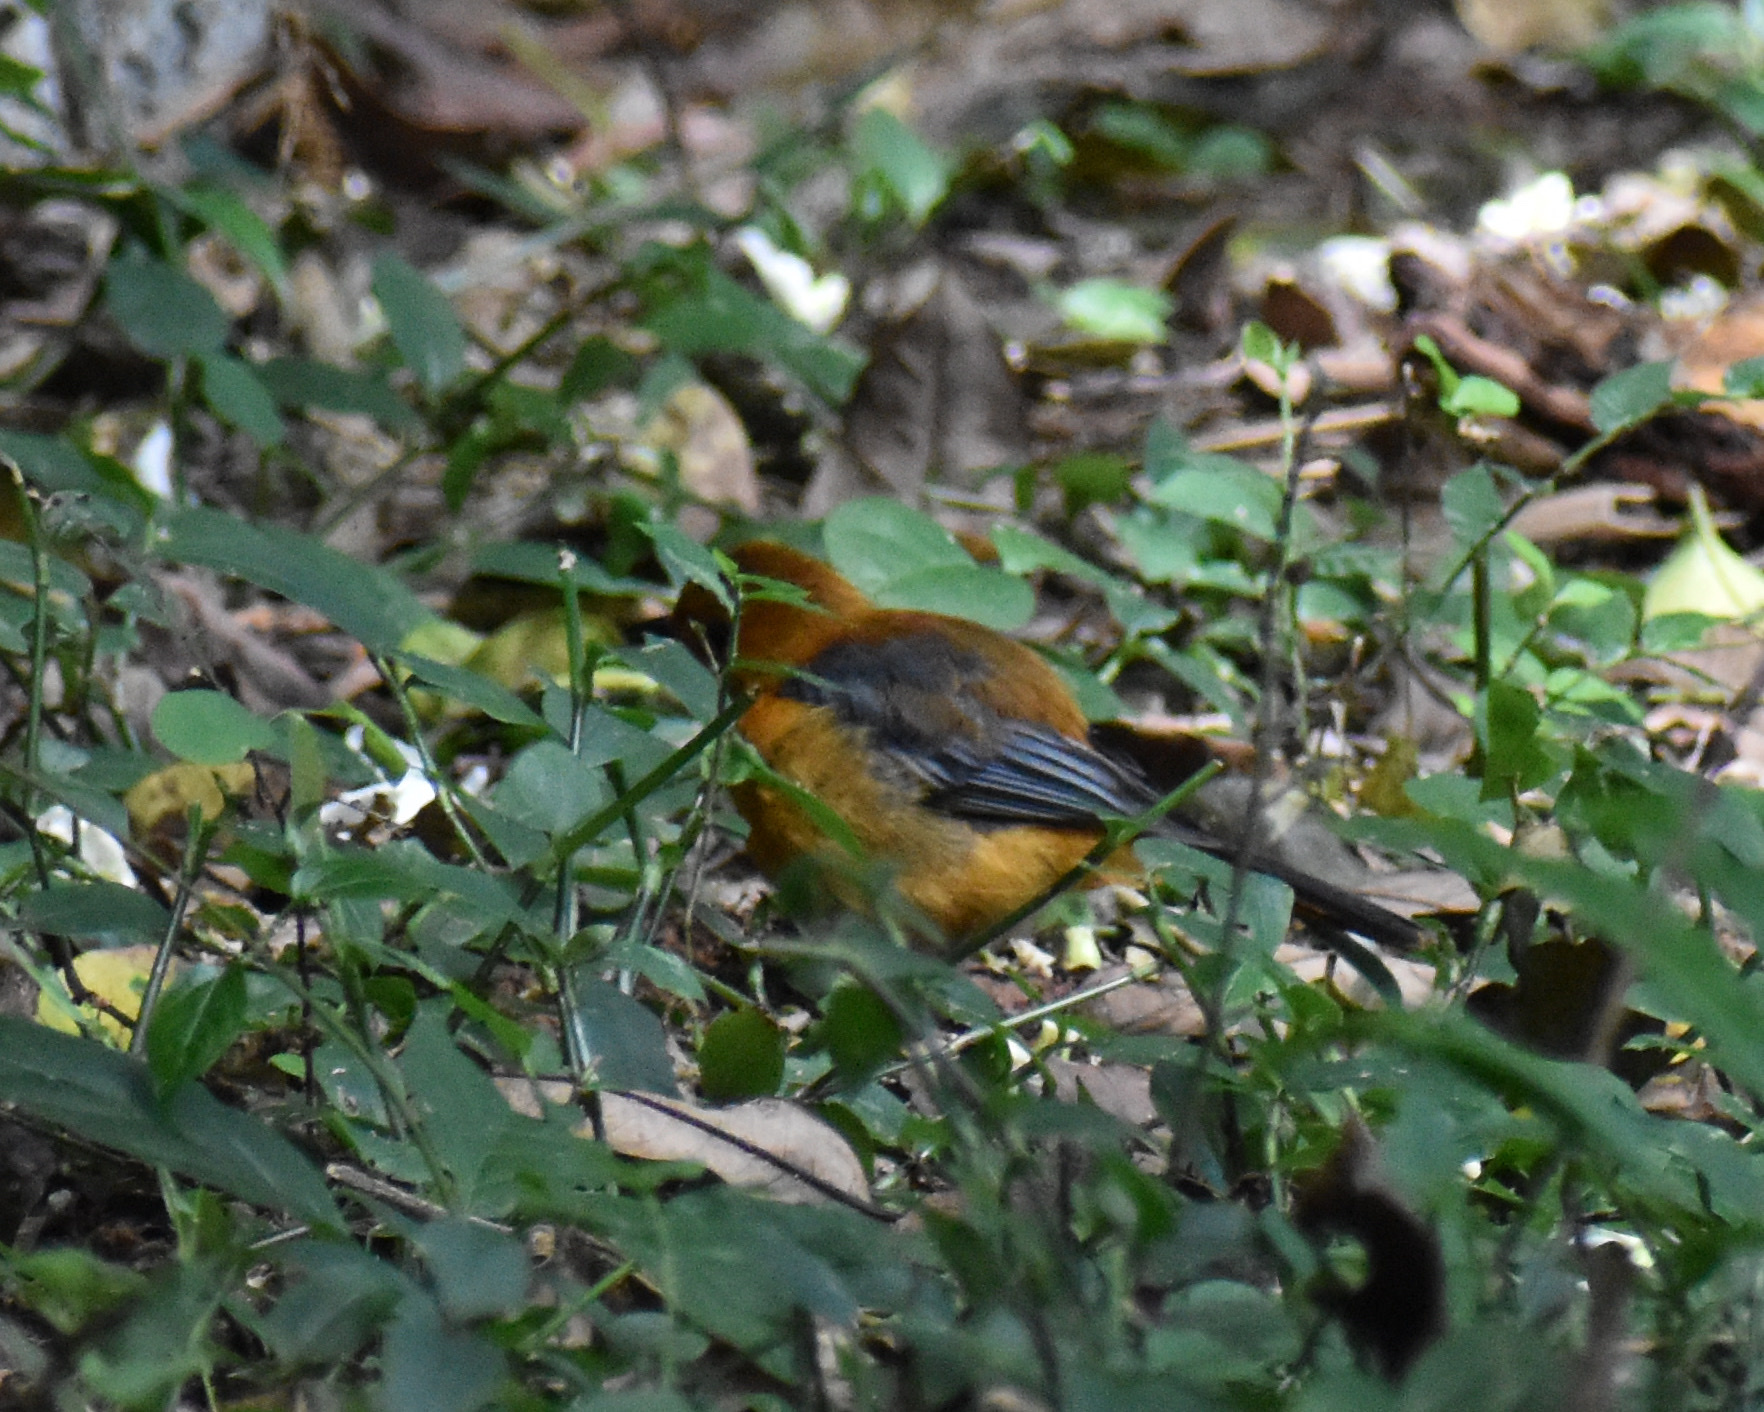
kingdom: Animalia
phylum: Chordata
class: Aves
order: Passeriformes
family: Muscicapidae
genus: Cossypha
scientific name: Cossypha natalensis
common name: Red-capped robin-chat
